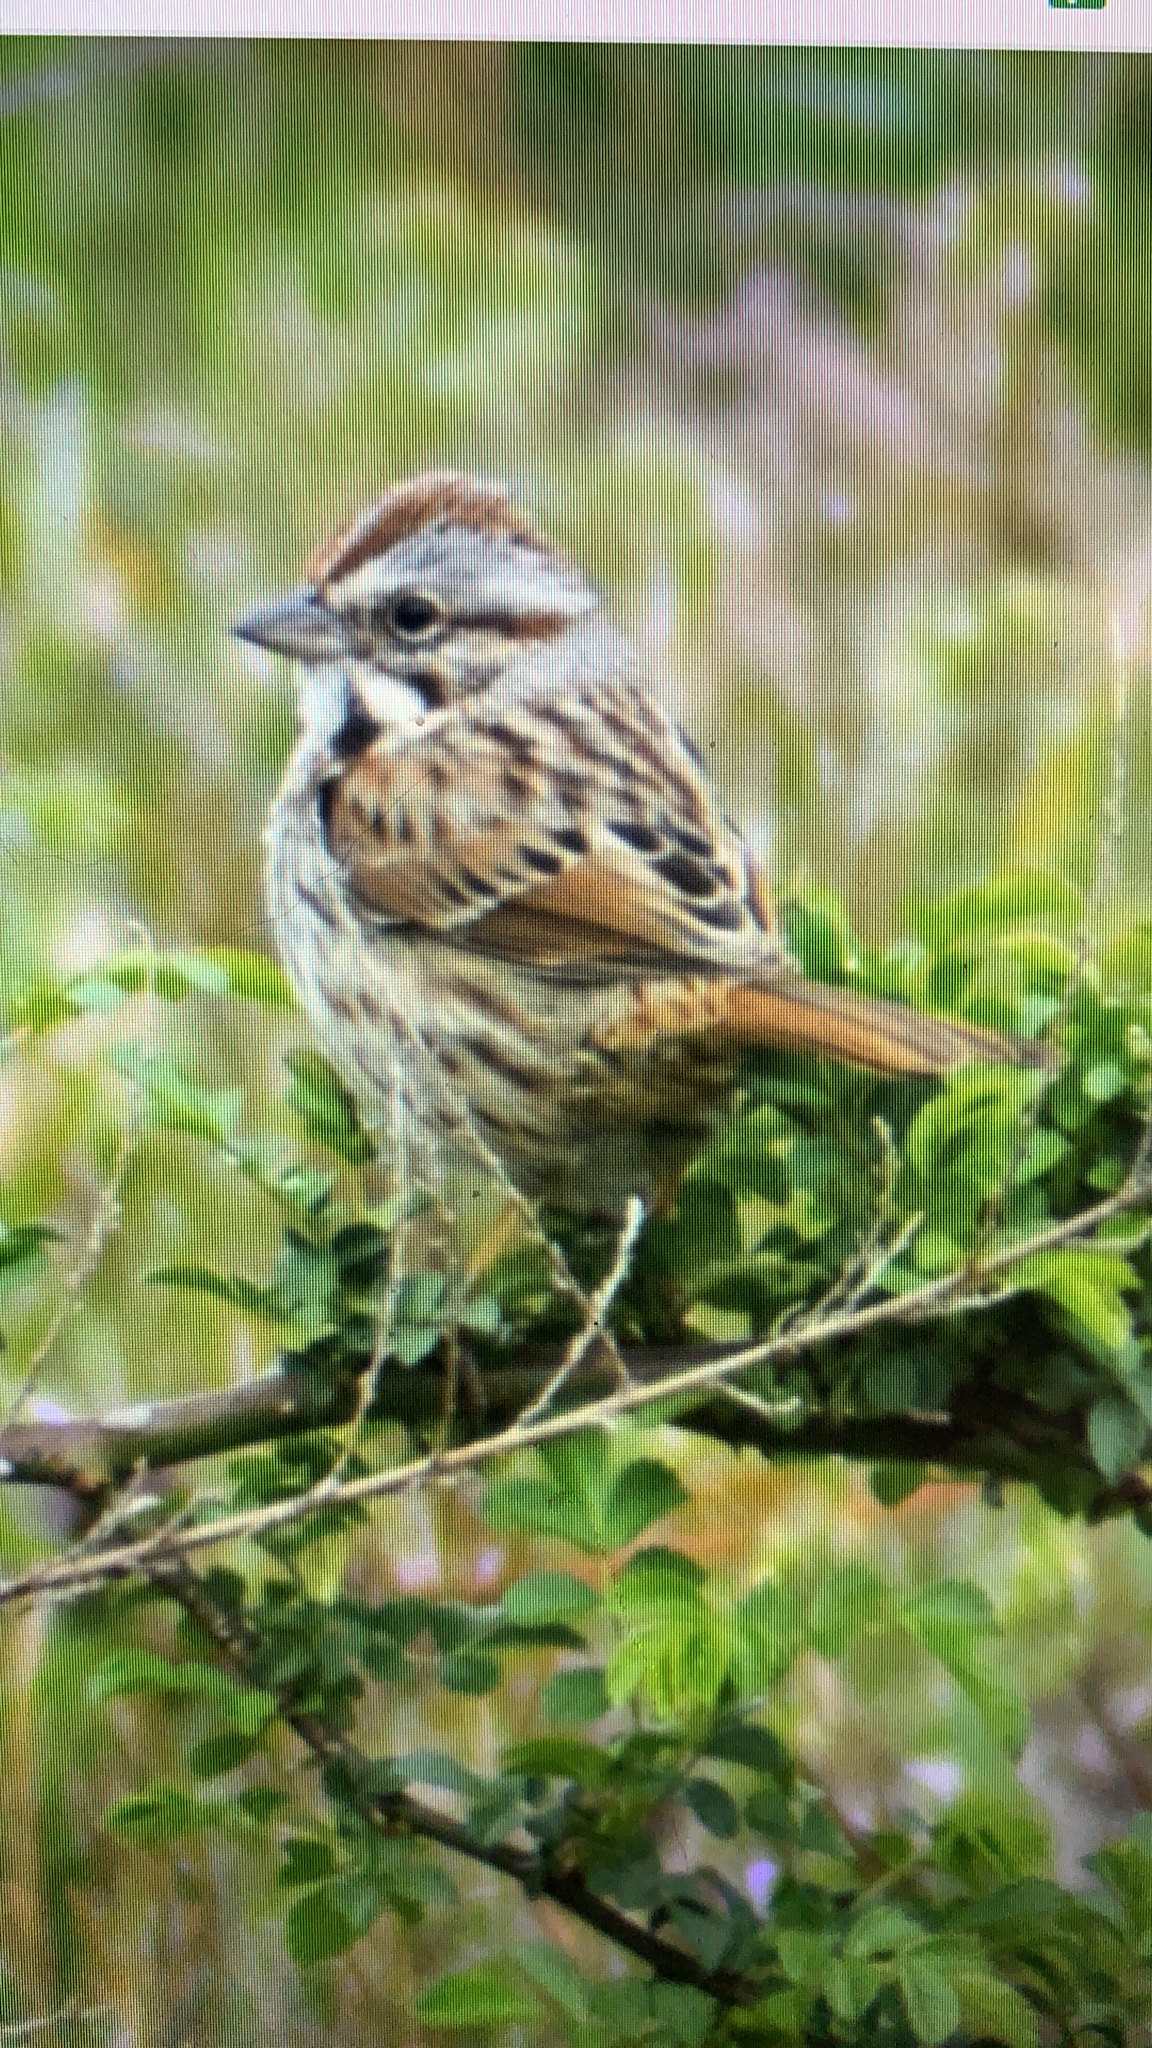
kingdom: Animalia
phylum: Chordata
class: Aves
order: Passeriformes
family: Passerellidae
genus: Melospiza
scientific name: Melospiza melodia
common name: Song sparrow
